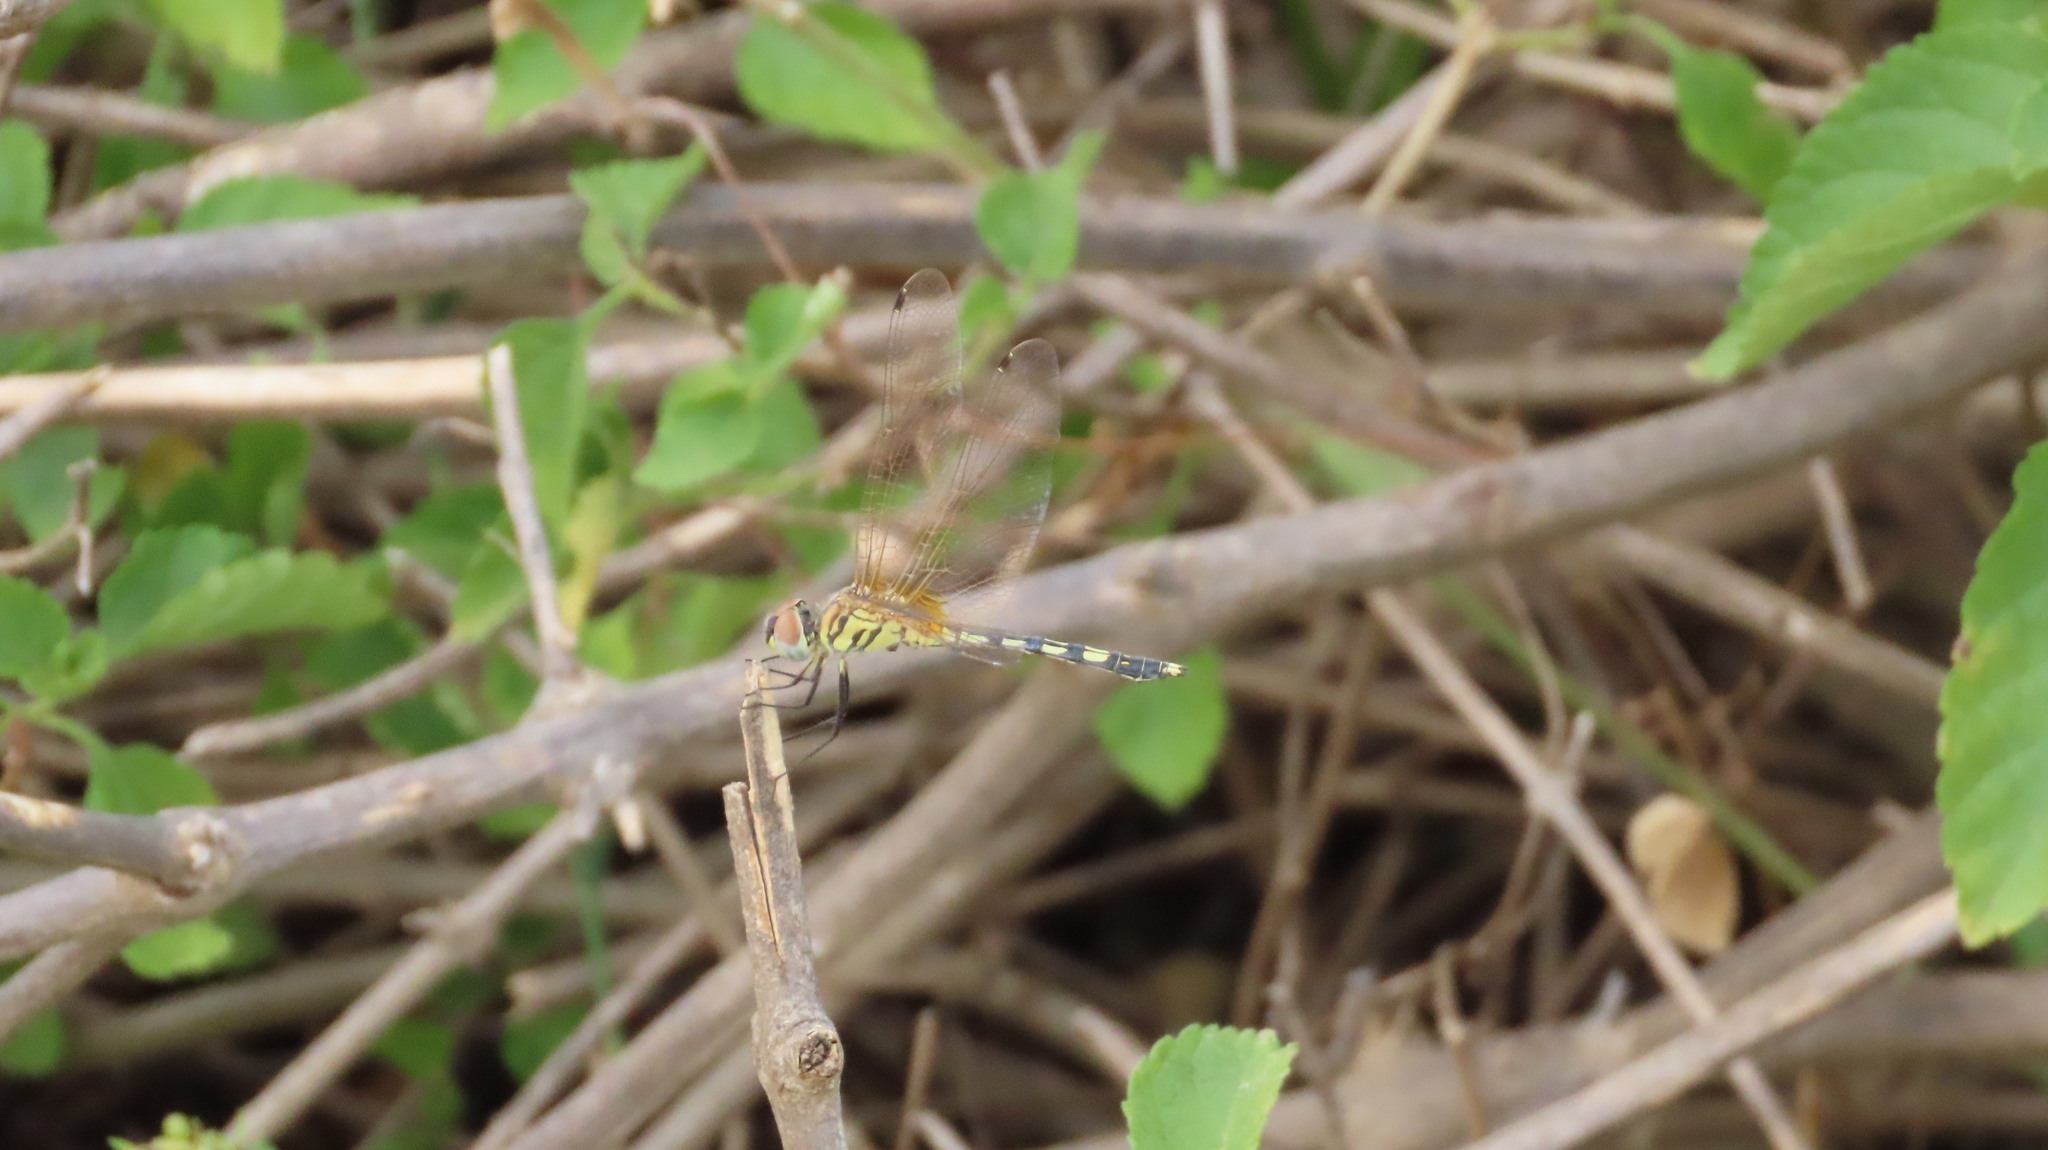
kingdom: Animalia
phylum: Arthropoda
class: Insecta
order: Odonata
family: Libellulidae
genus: Trithemis
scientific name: Trithemis pallidinervis
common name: Dancing dropwing
